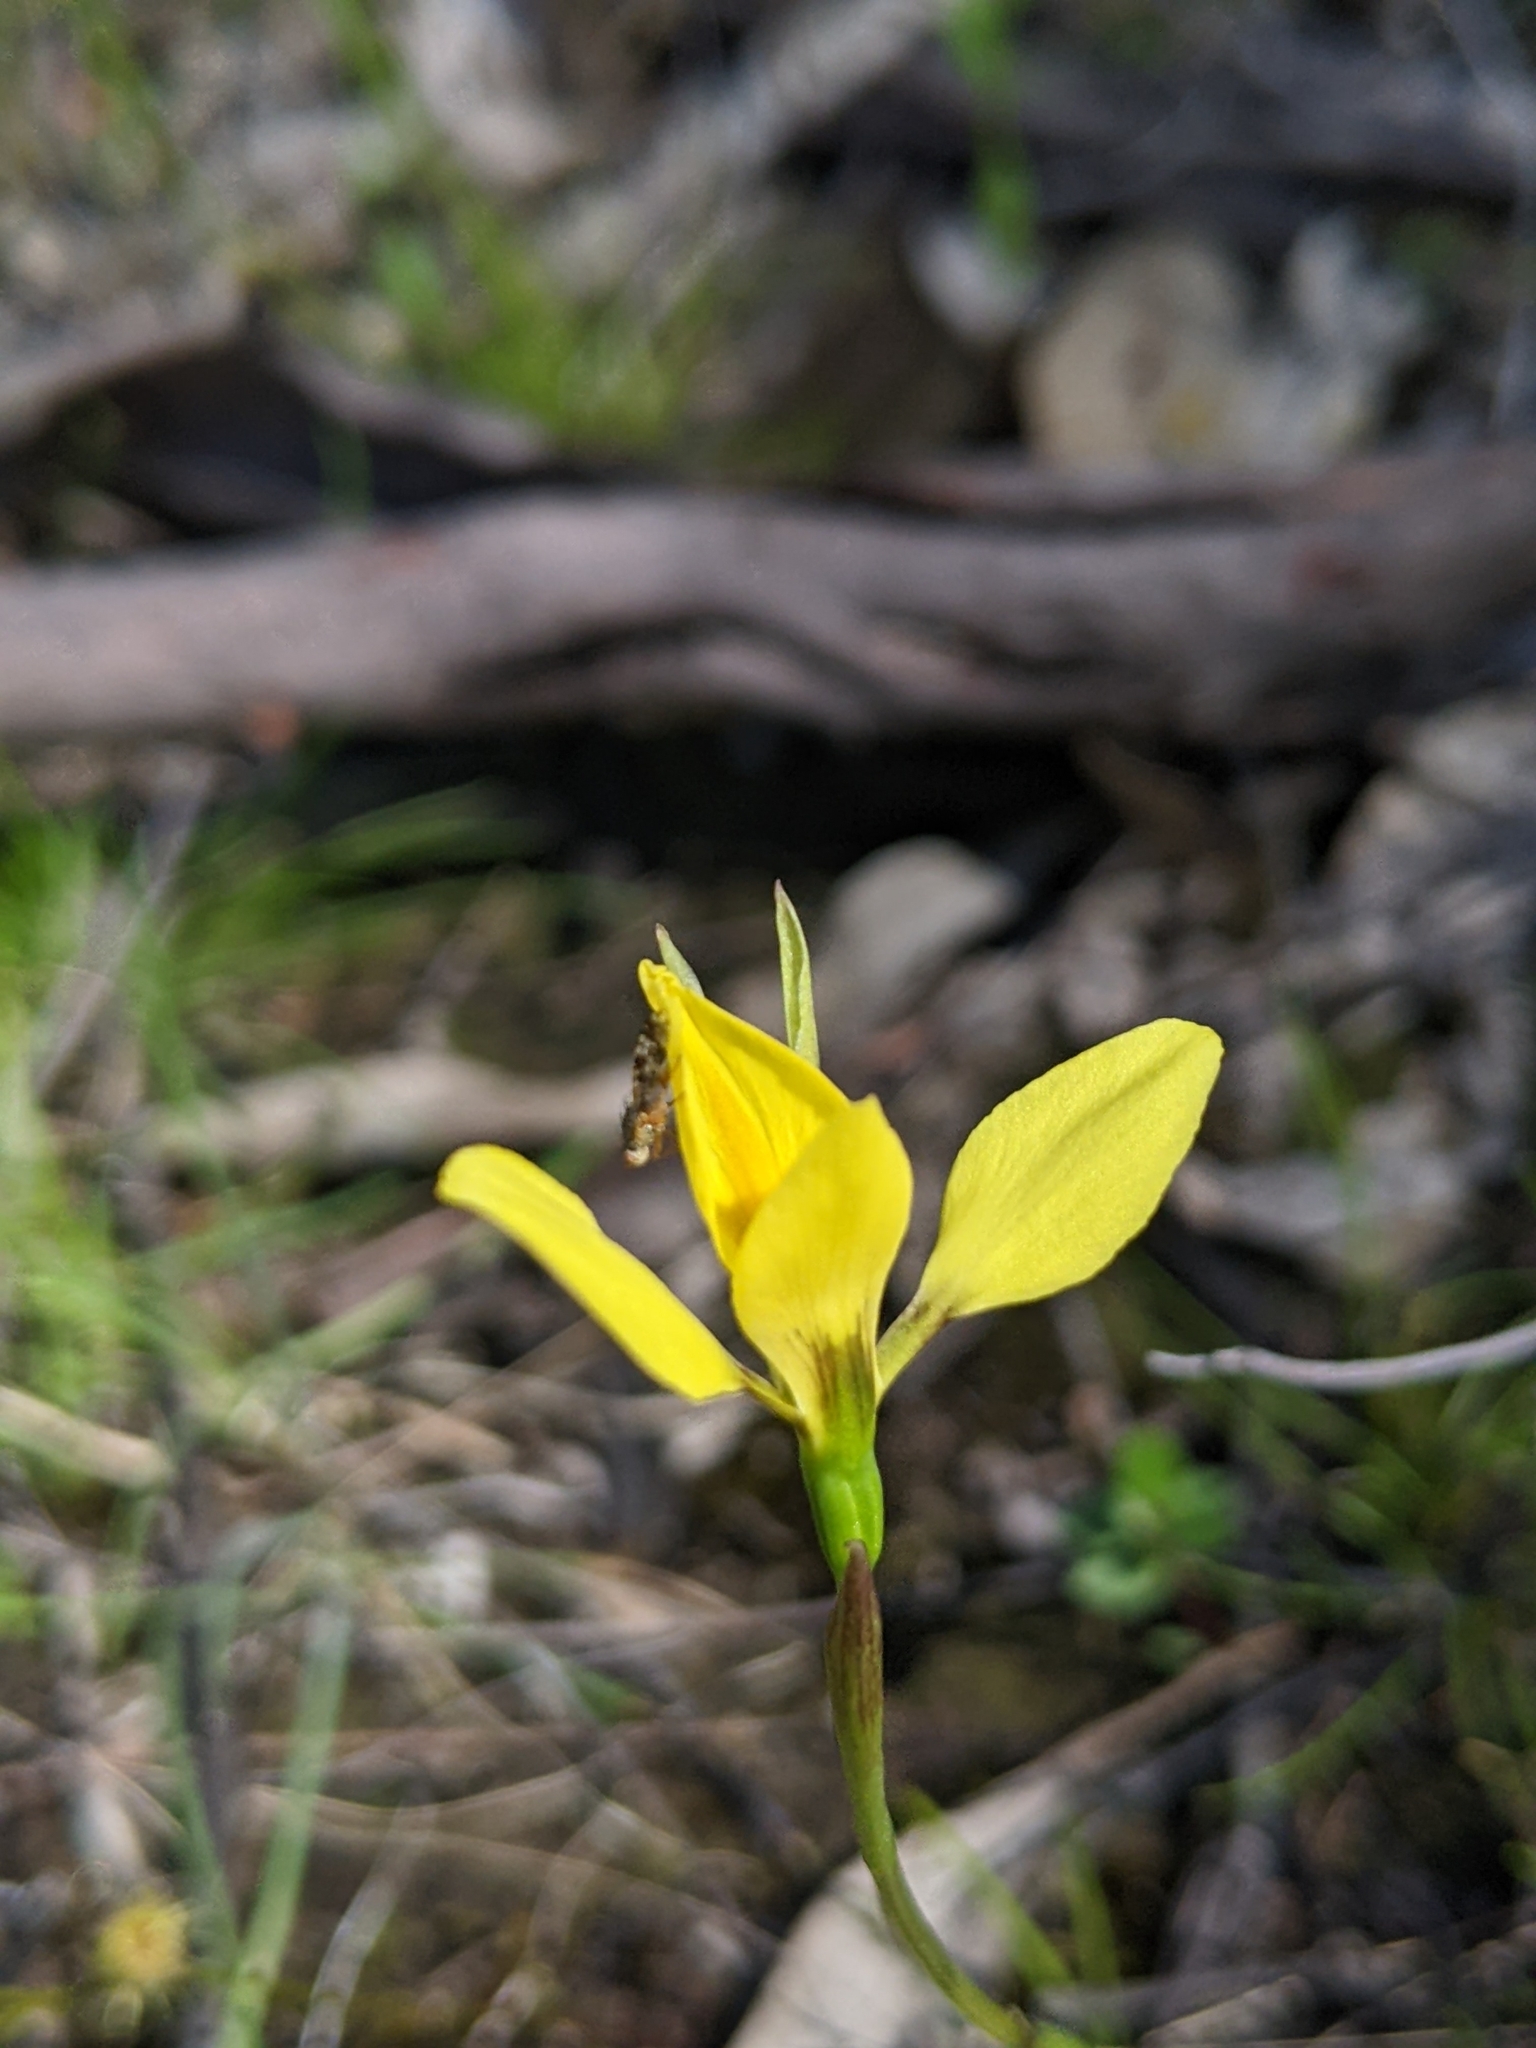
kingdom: Plantae
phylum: Tracheophyta
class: Liliopsida
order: Asparagales
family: Orchidaceae
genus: Diuris
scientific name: Diuris chryseopsis
